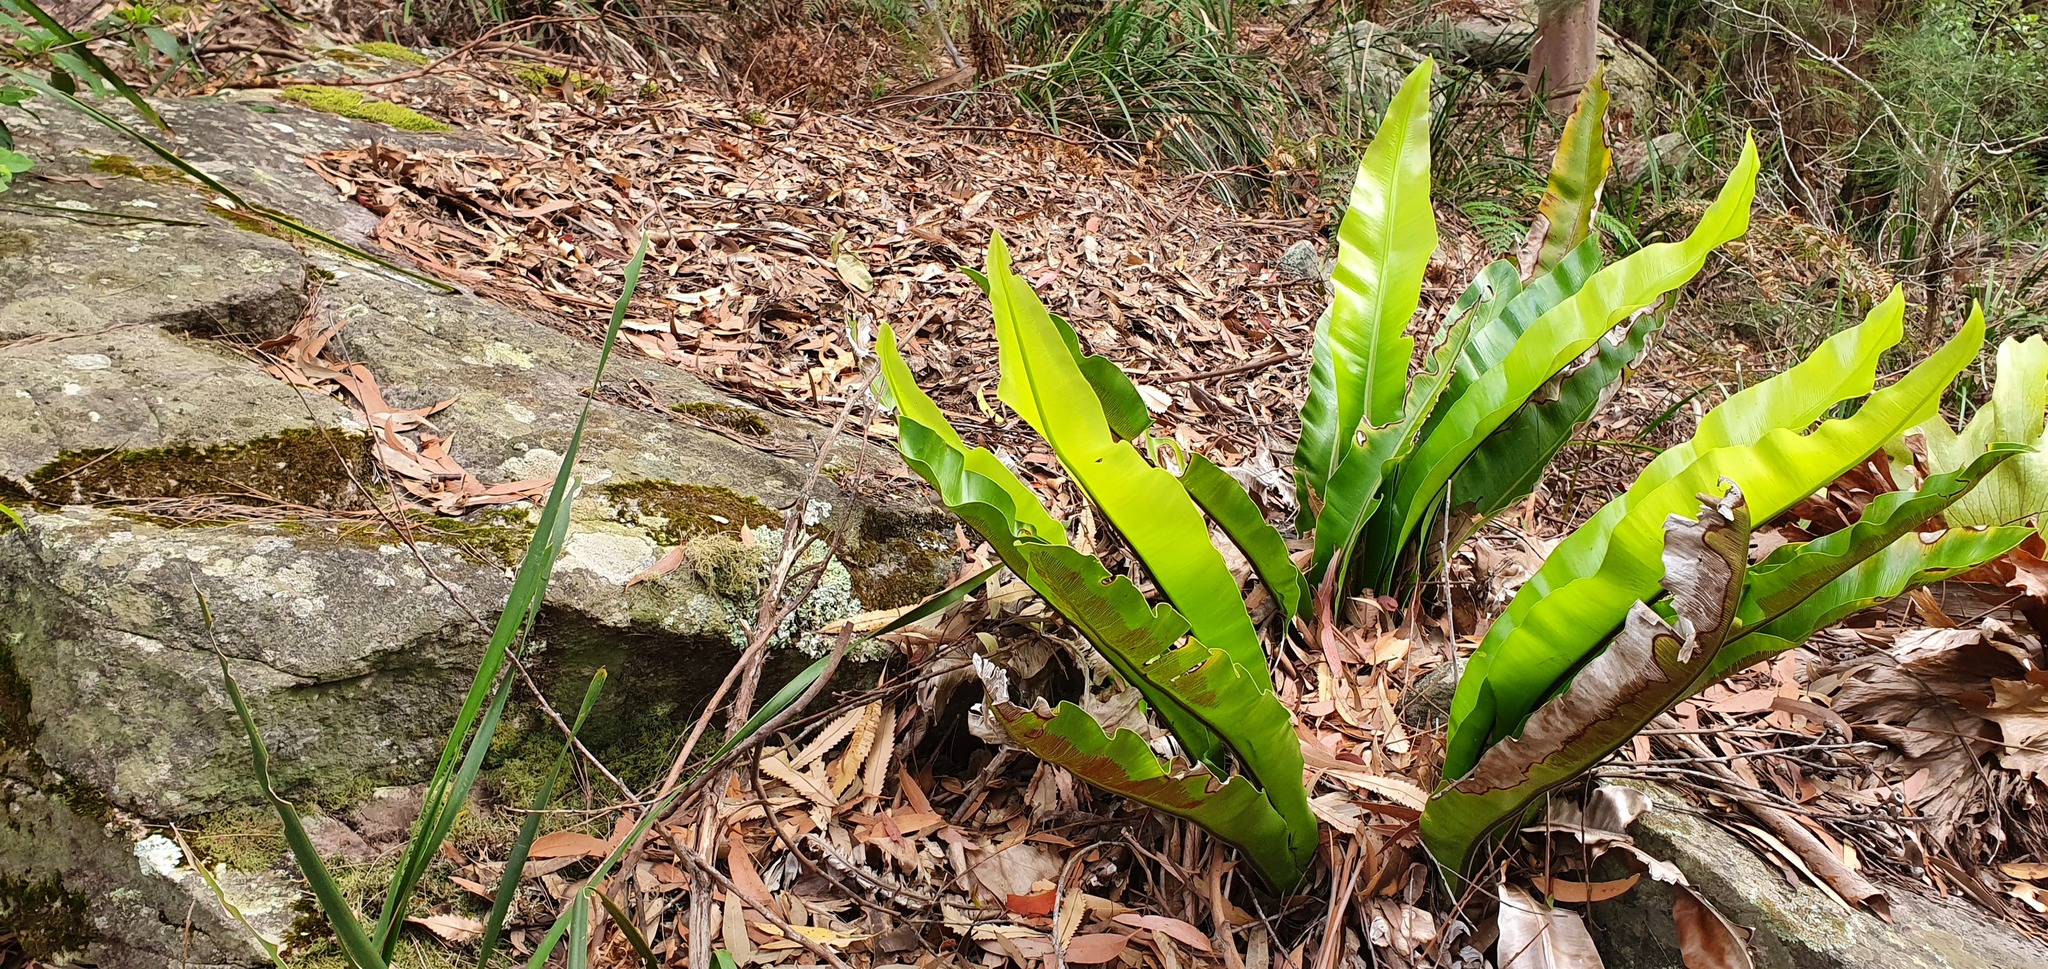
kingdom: Plantae
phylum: Tracheophyta
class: Polypodiopsida
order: Polypodiales
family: Aspleniaceae
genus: Asplenium
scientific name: Asplenium australasicum
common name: Bird's-nest fern
